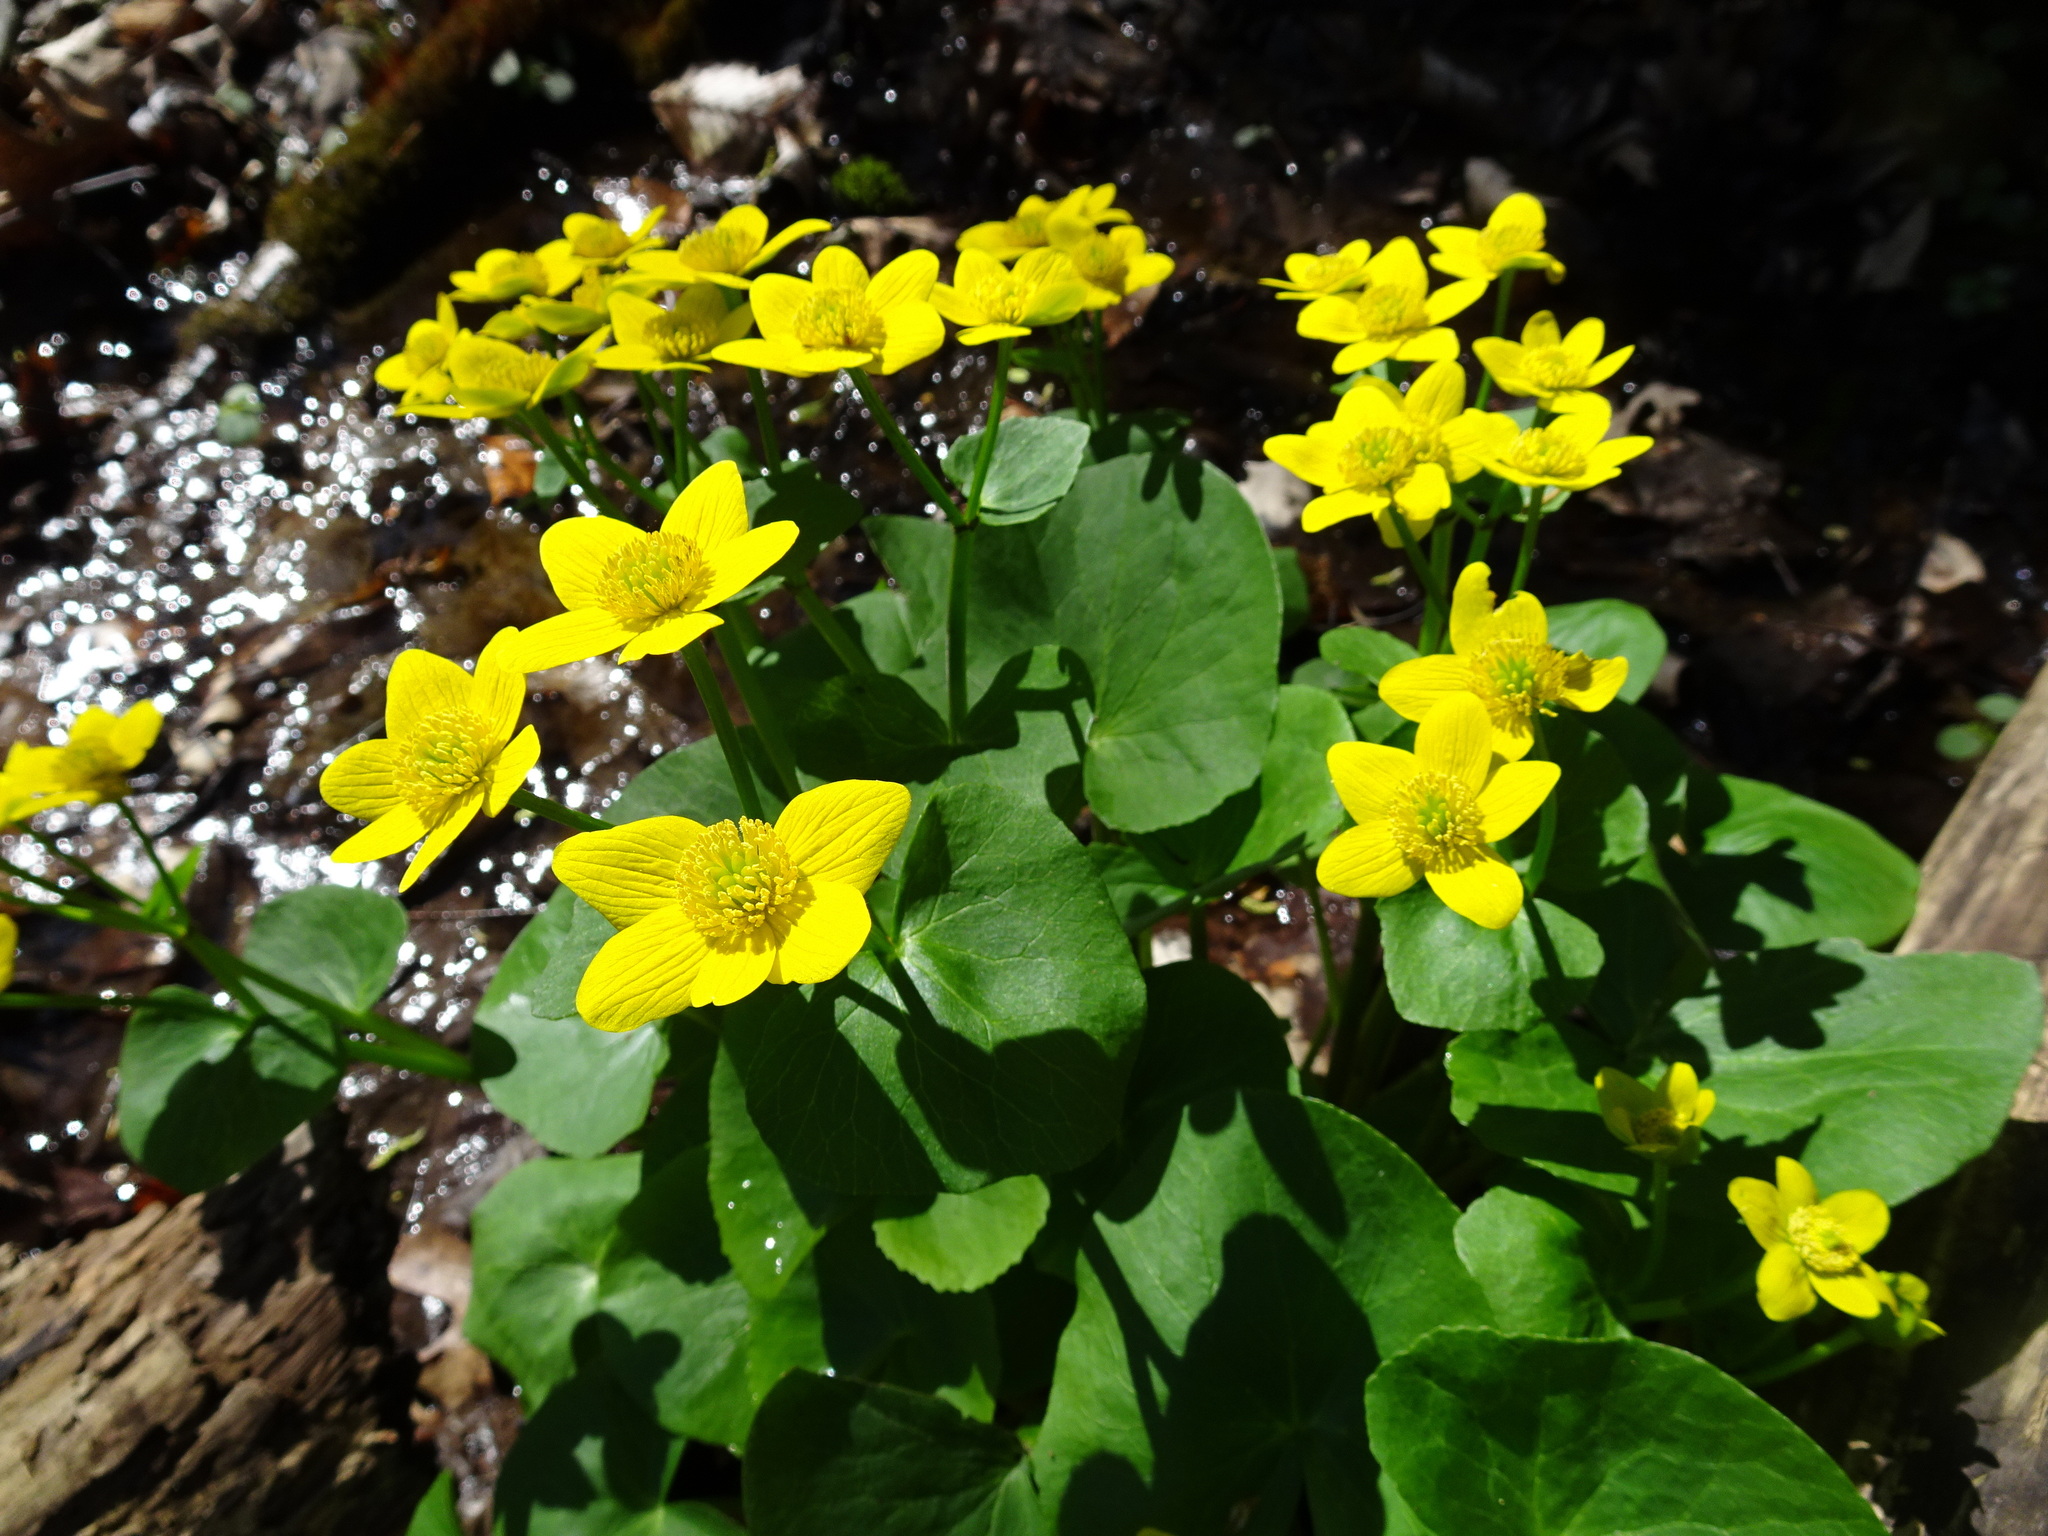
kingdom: Plantae
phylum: Tracheophyta
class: Magnoliopsida
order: Ranunculales
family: Ranunculaceae
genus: Caltha
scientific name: Caltha palustris
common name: Marsh marigold
